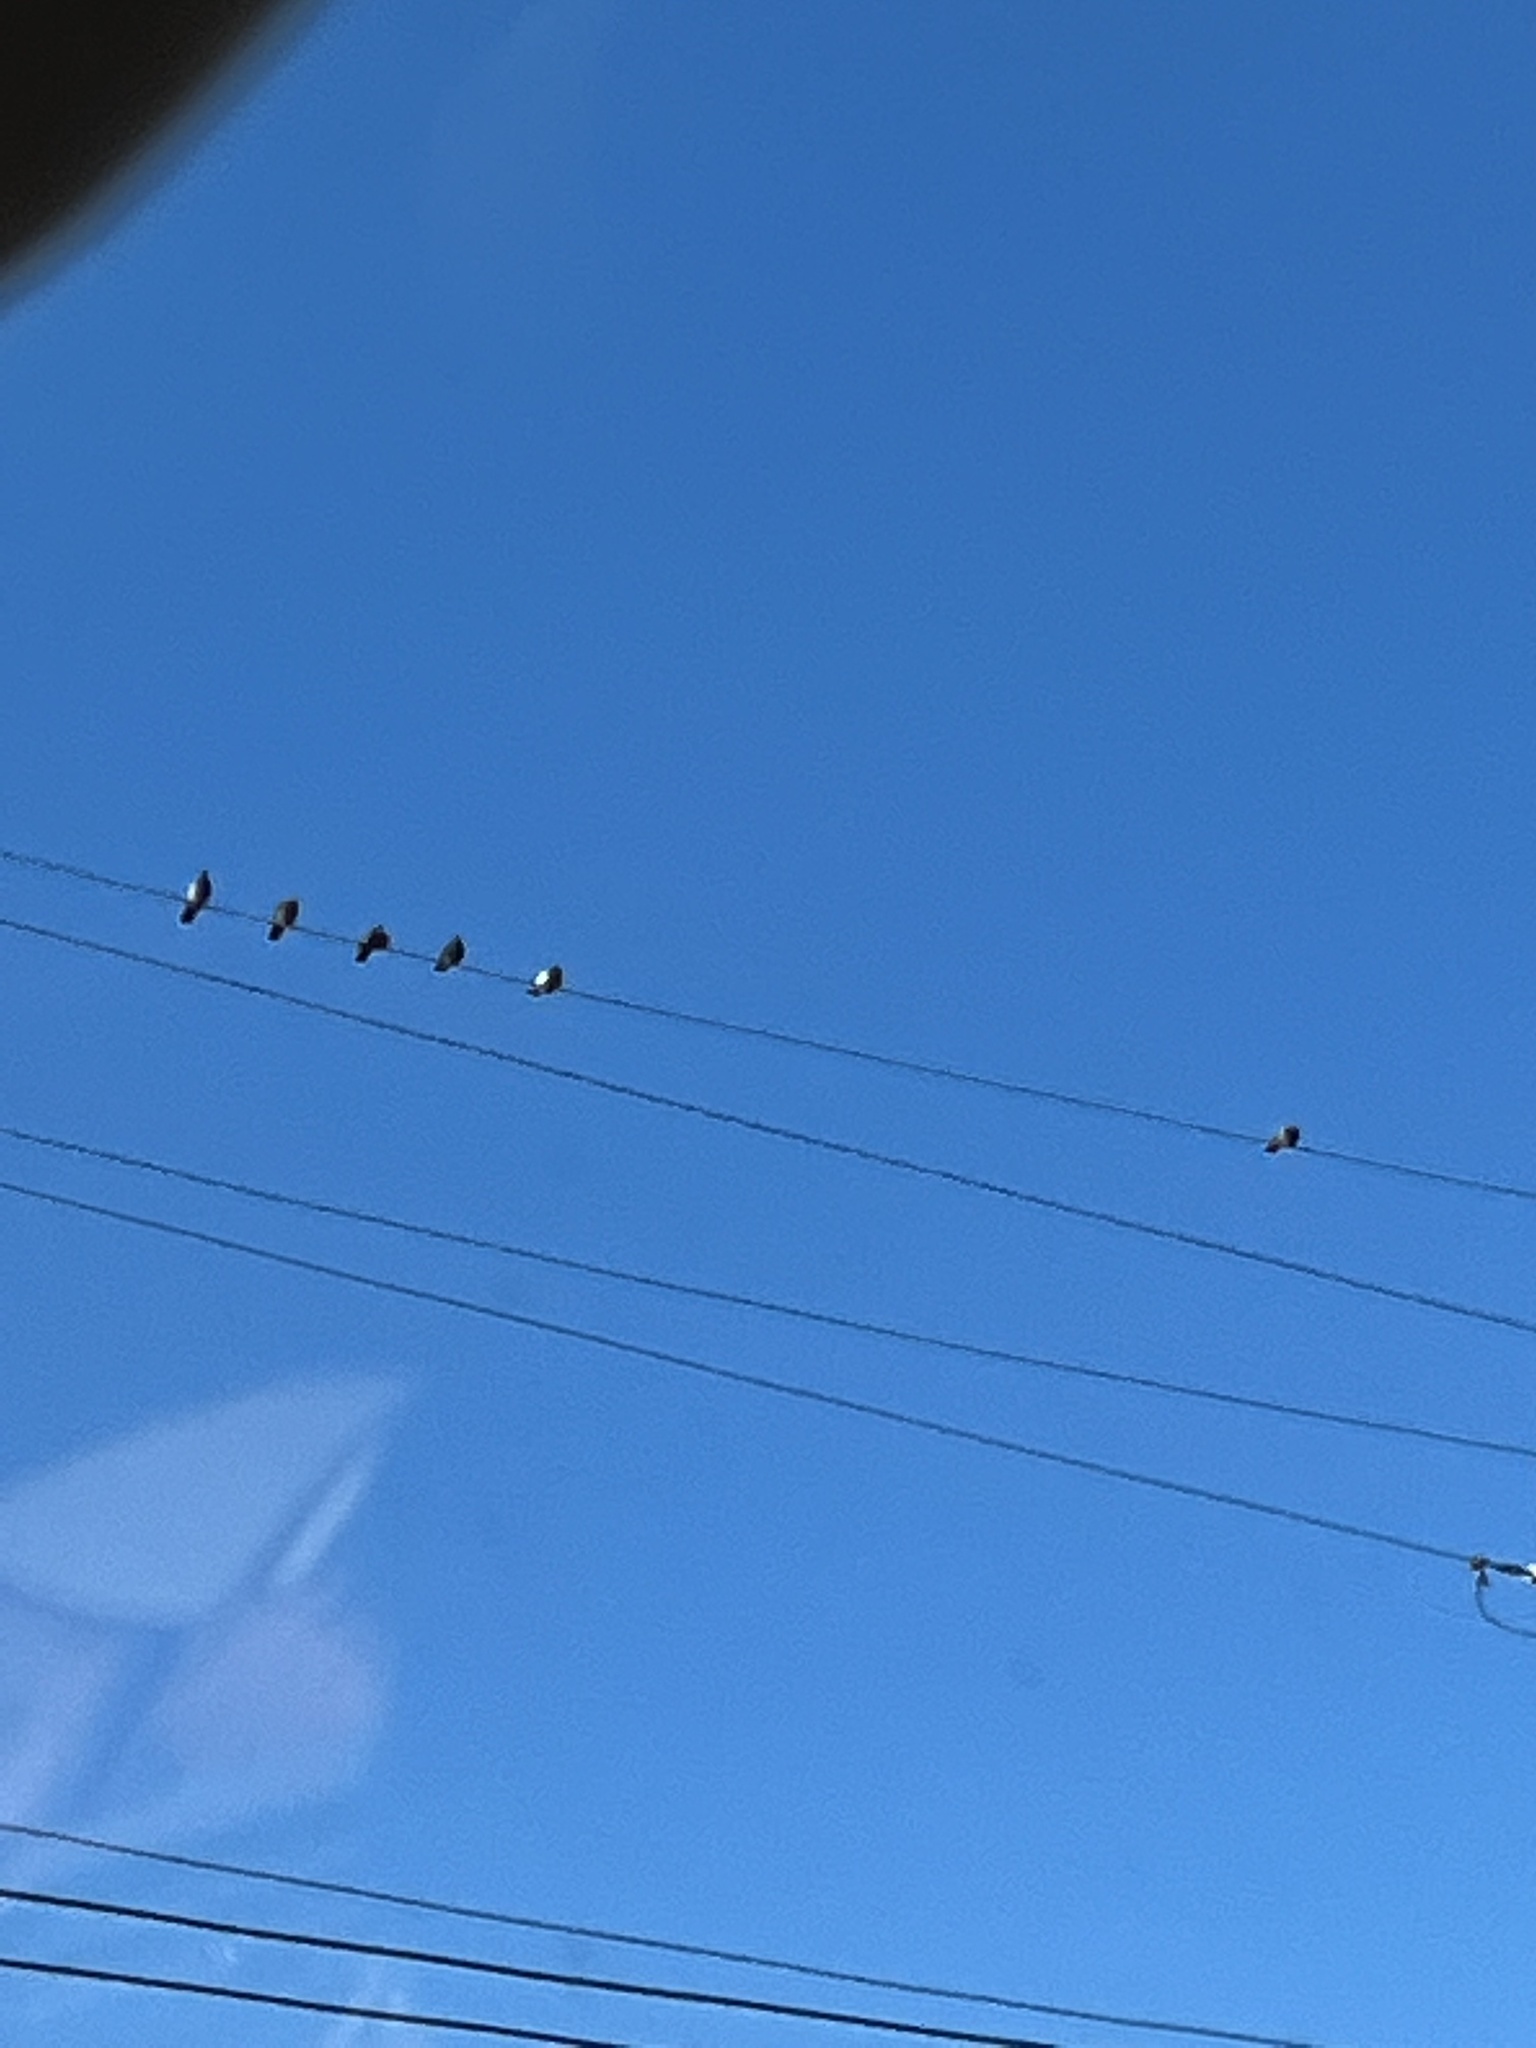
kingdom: Animalia
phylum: Chordata
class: Aves
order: Columbiformes
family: Columbidae
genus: Columba
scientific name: Columba livia
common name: Rock pigeon
